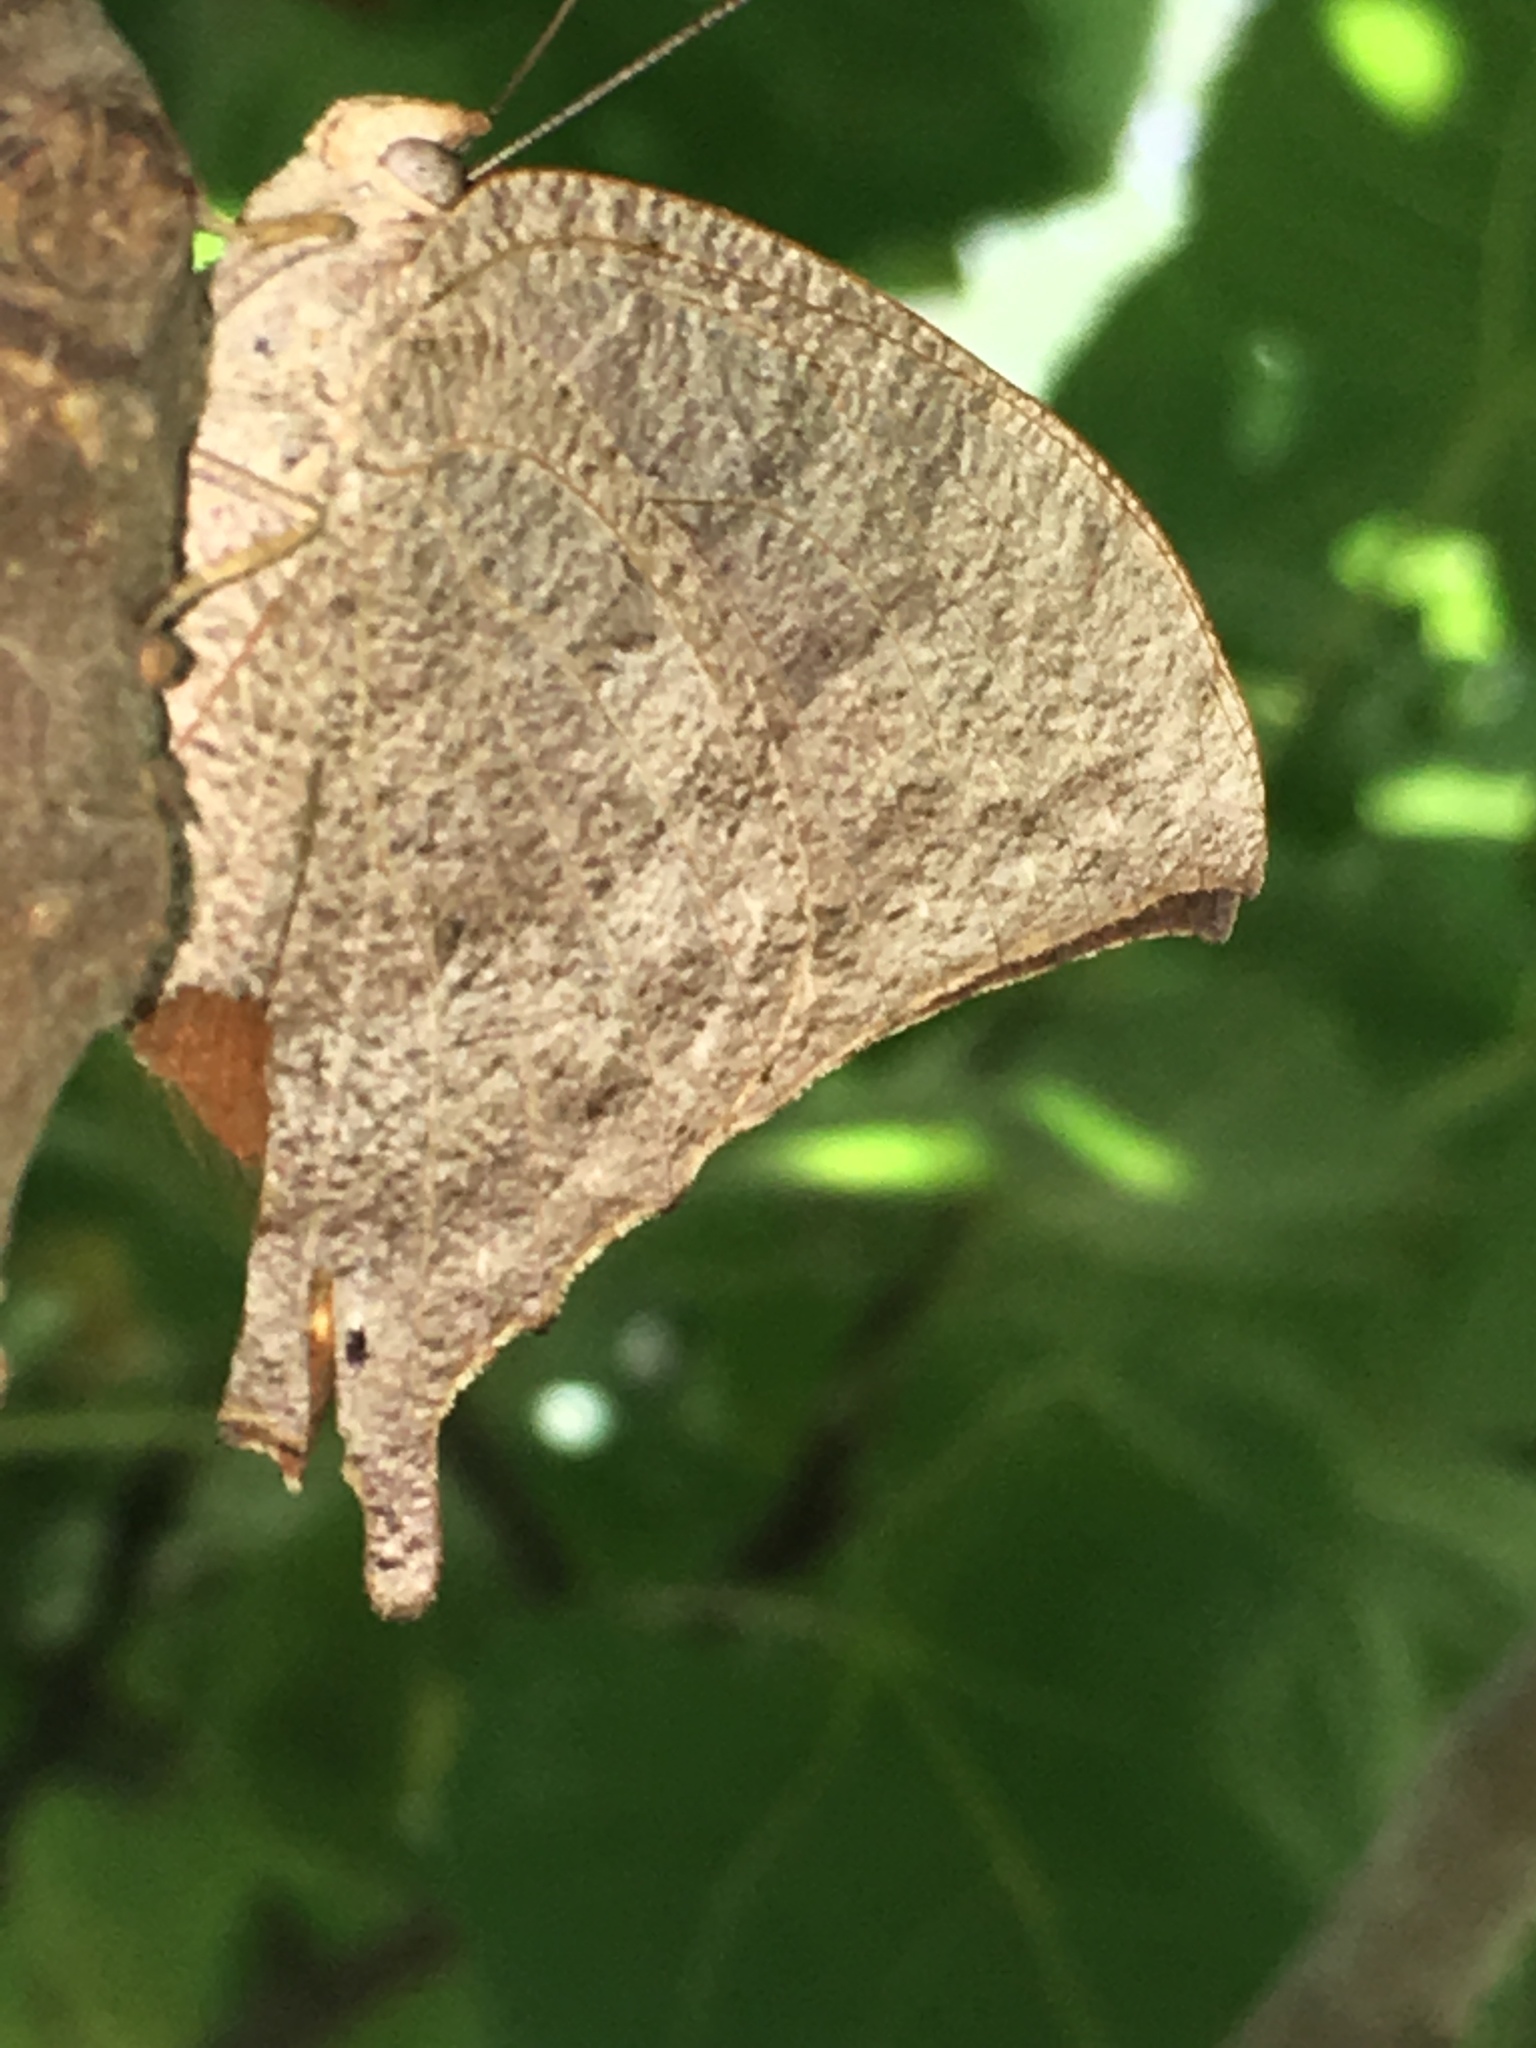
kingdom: Animalia
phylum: Arthropoda
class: Insecta
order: Lepidoptera
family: Nymphalidae
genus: Anaea
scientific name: Anaea andria
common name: Goatweed leafwing
